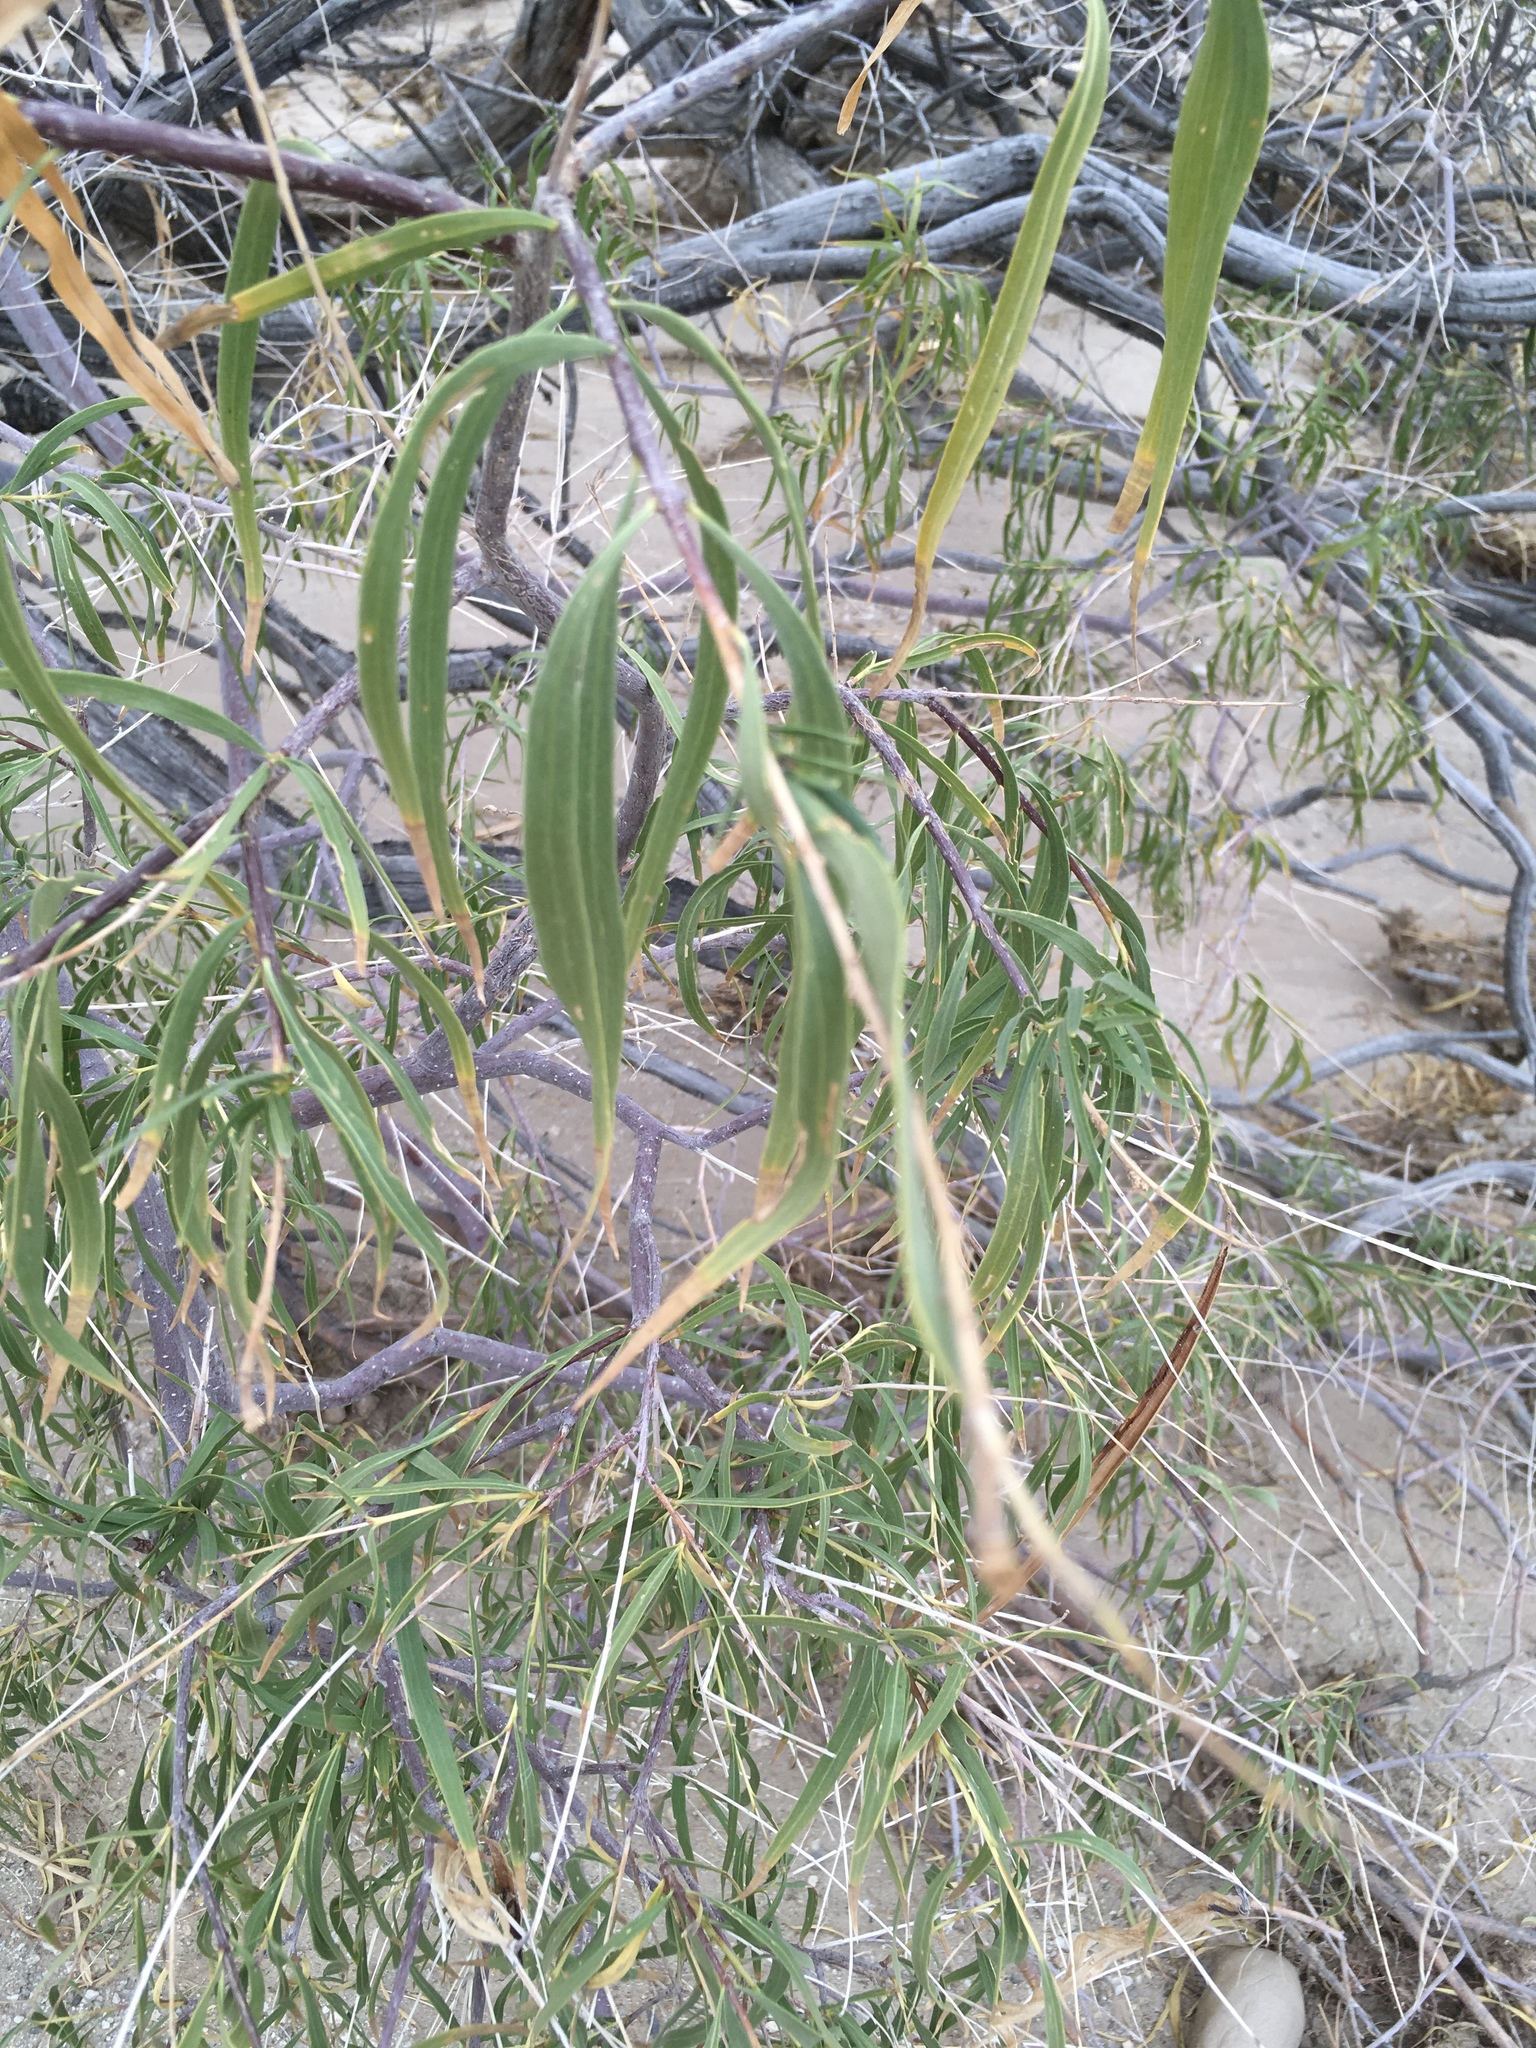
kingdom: Plantae
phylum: Tracheophyta
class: Magnoliopsida
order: Lamiales
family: Bignoniaceae
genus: Chilopsis
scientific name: Chilopsis linearis
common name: Desert-willow
